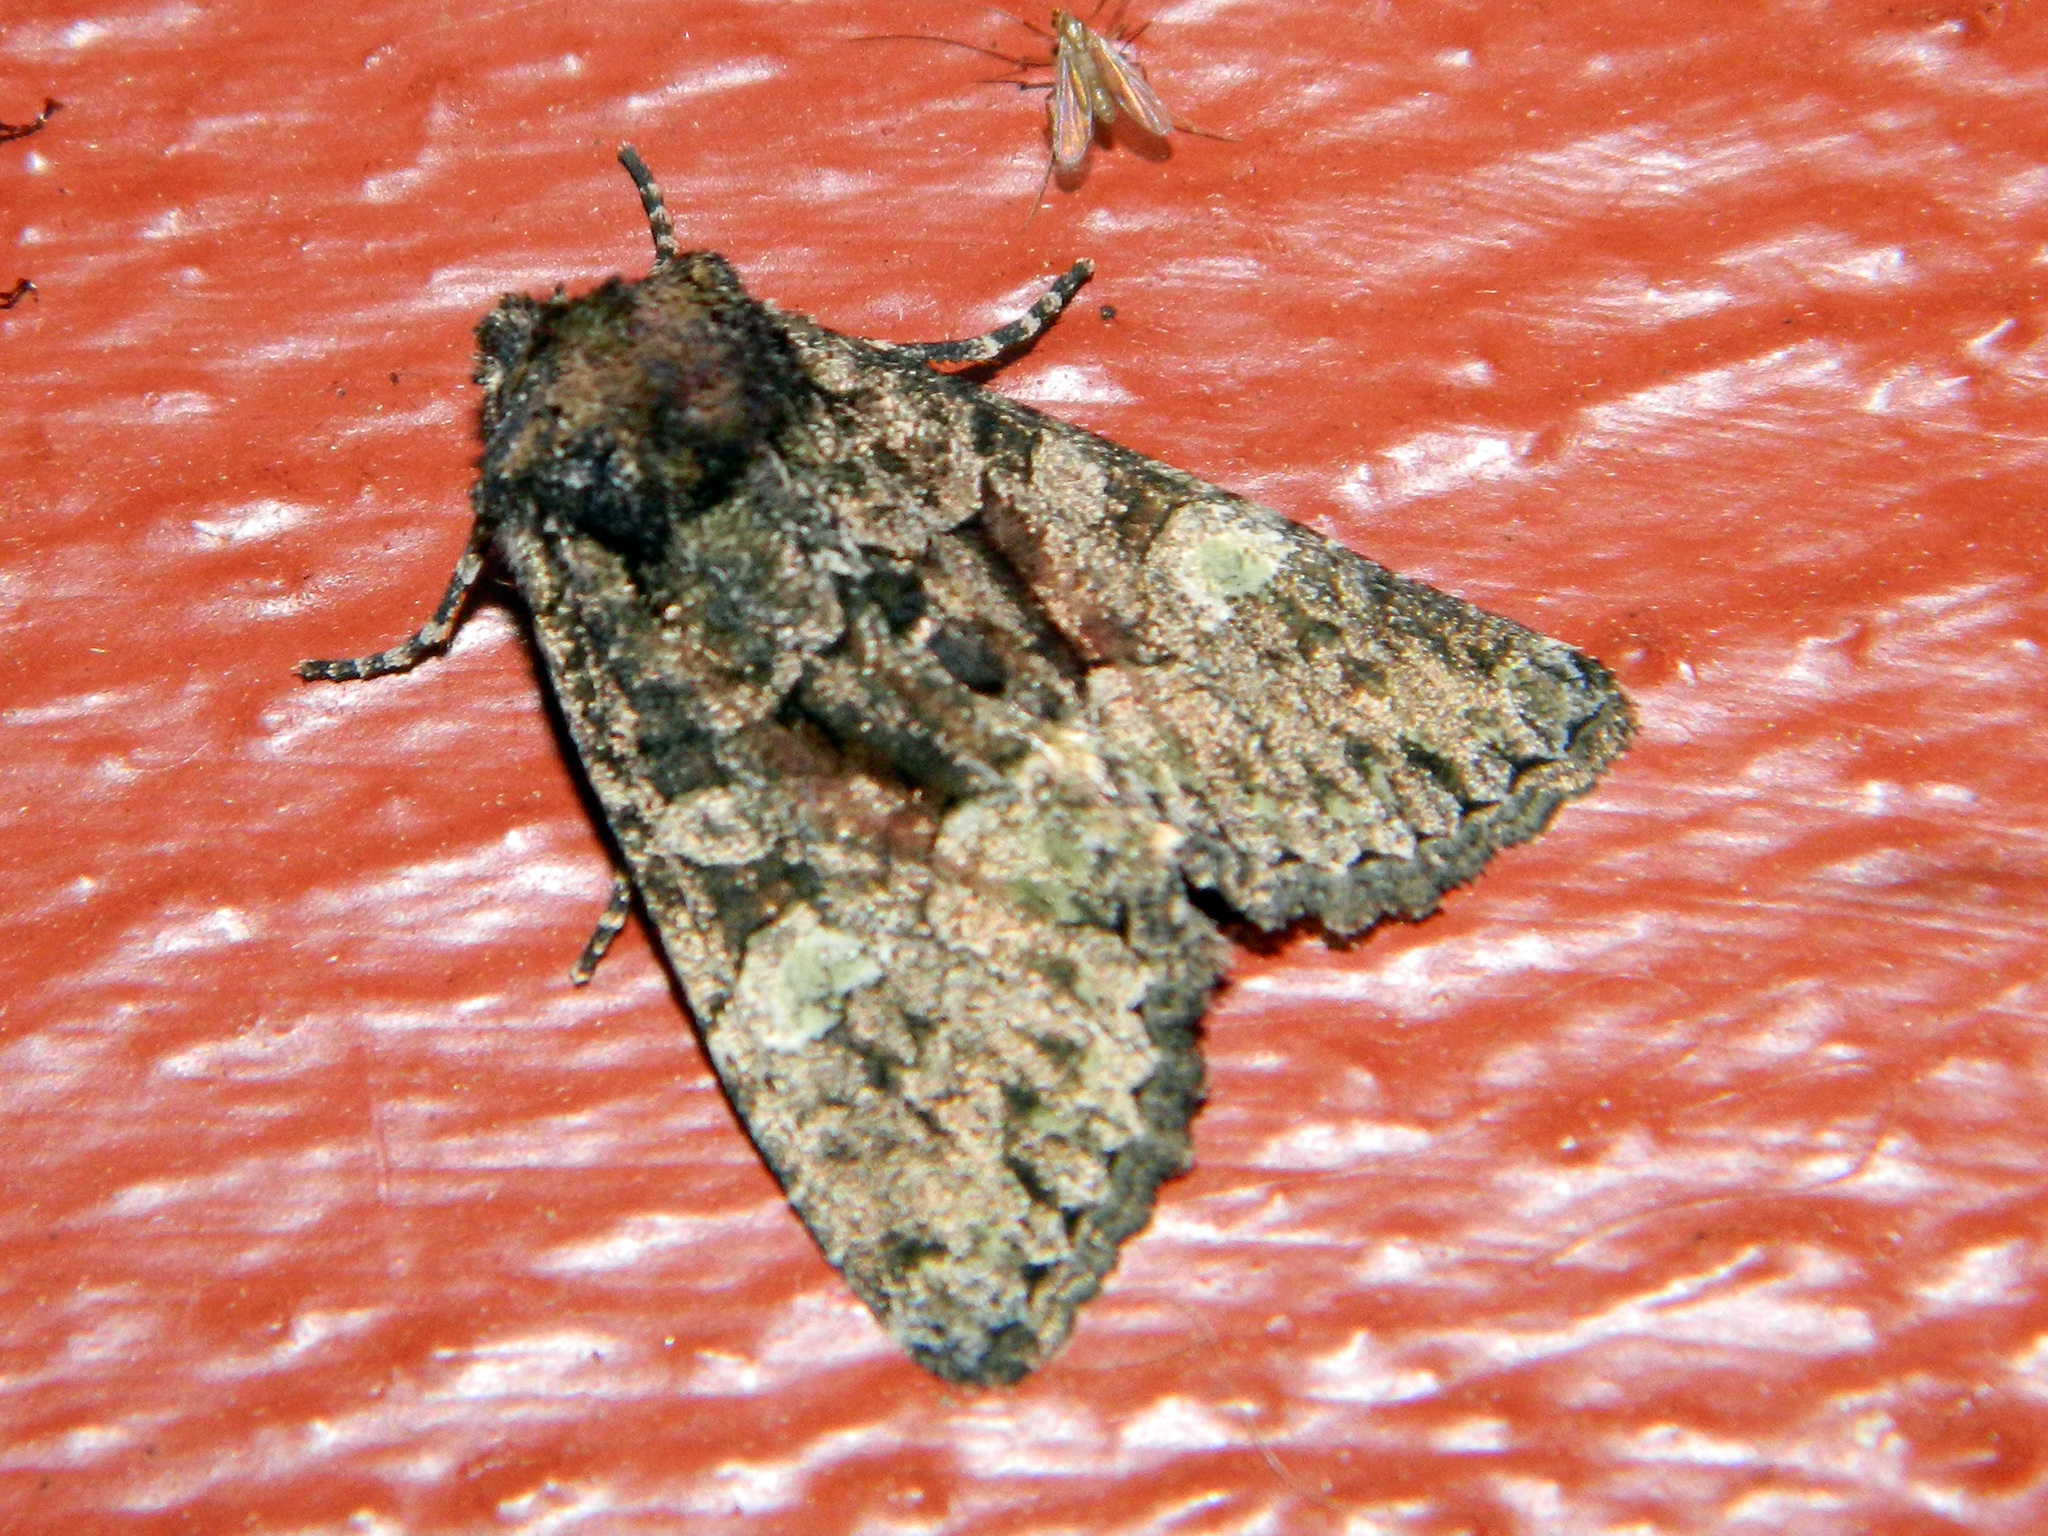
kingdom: Animalia
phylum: Arthropoda
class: Insecta
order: Lepidoptera
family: Noctuidae
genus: Fishia
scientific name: Fishia illocata
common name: Wandering brocade moth
